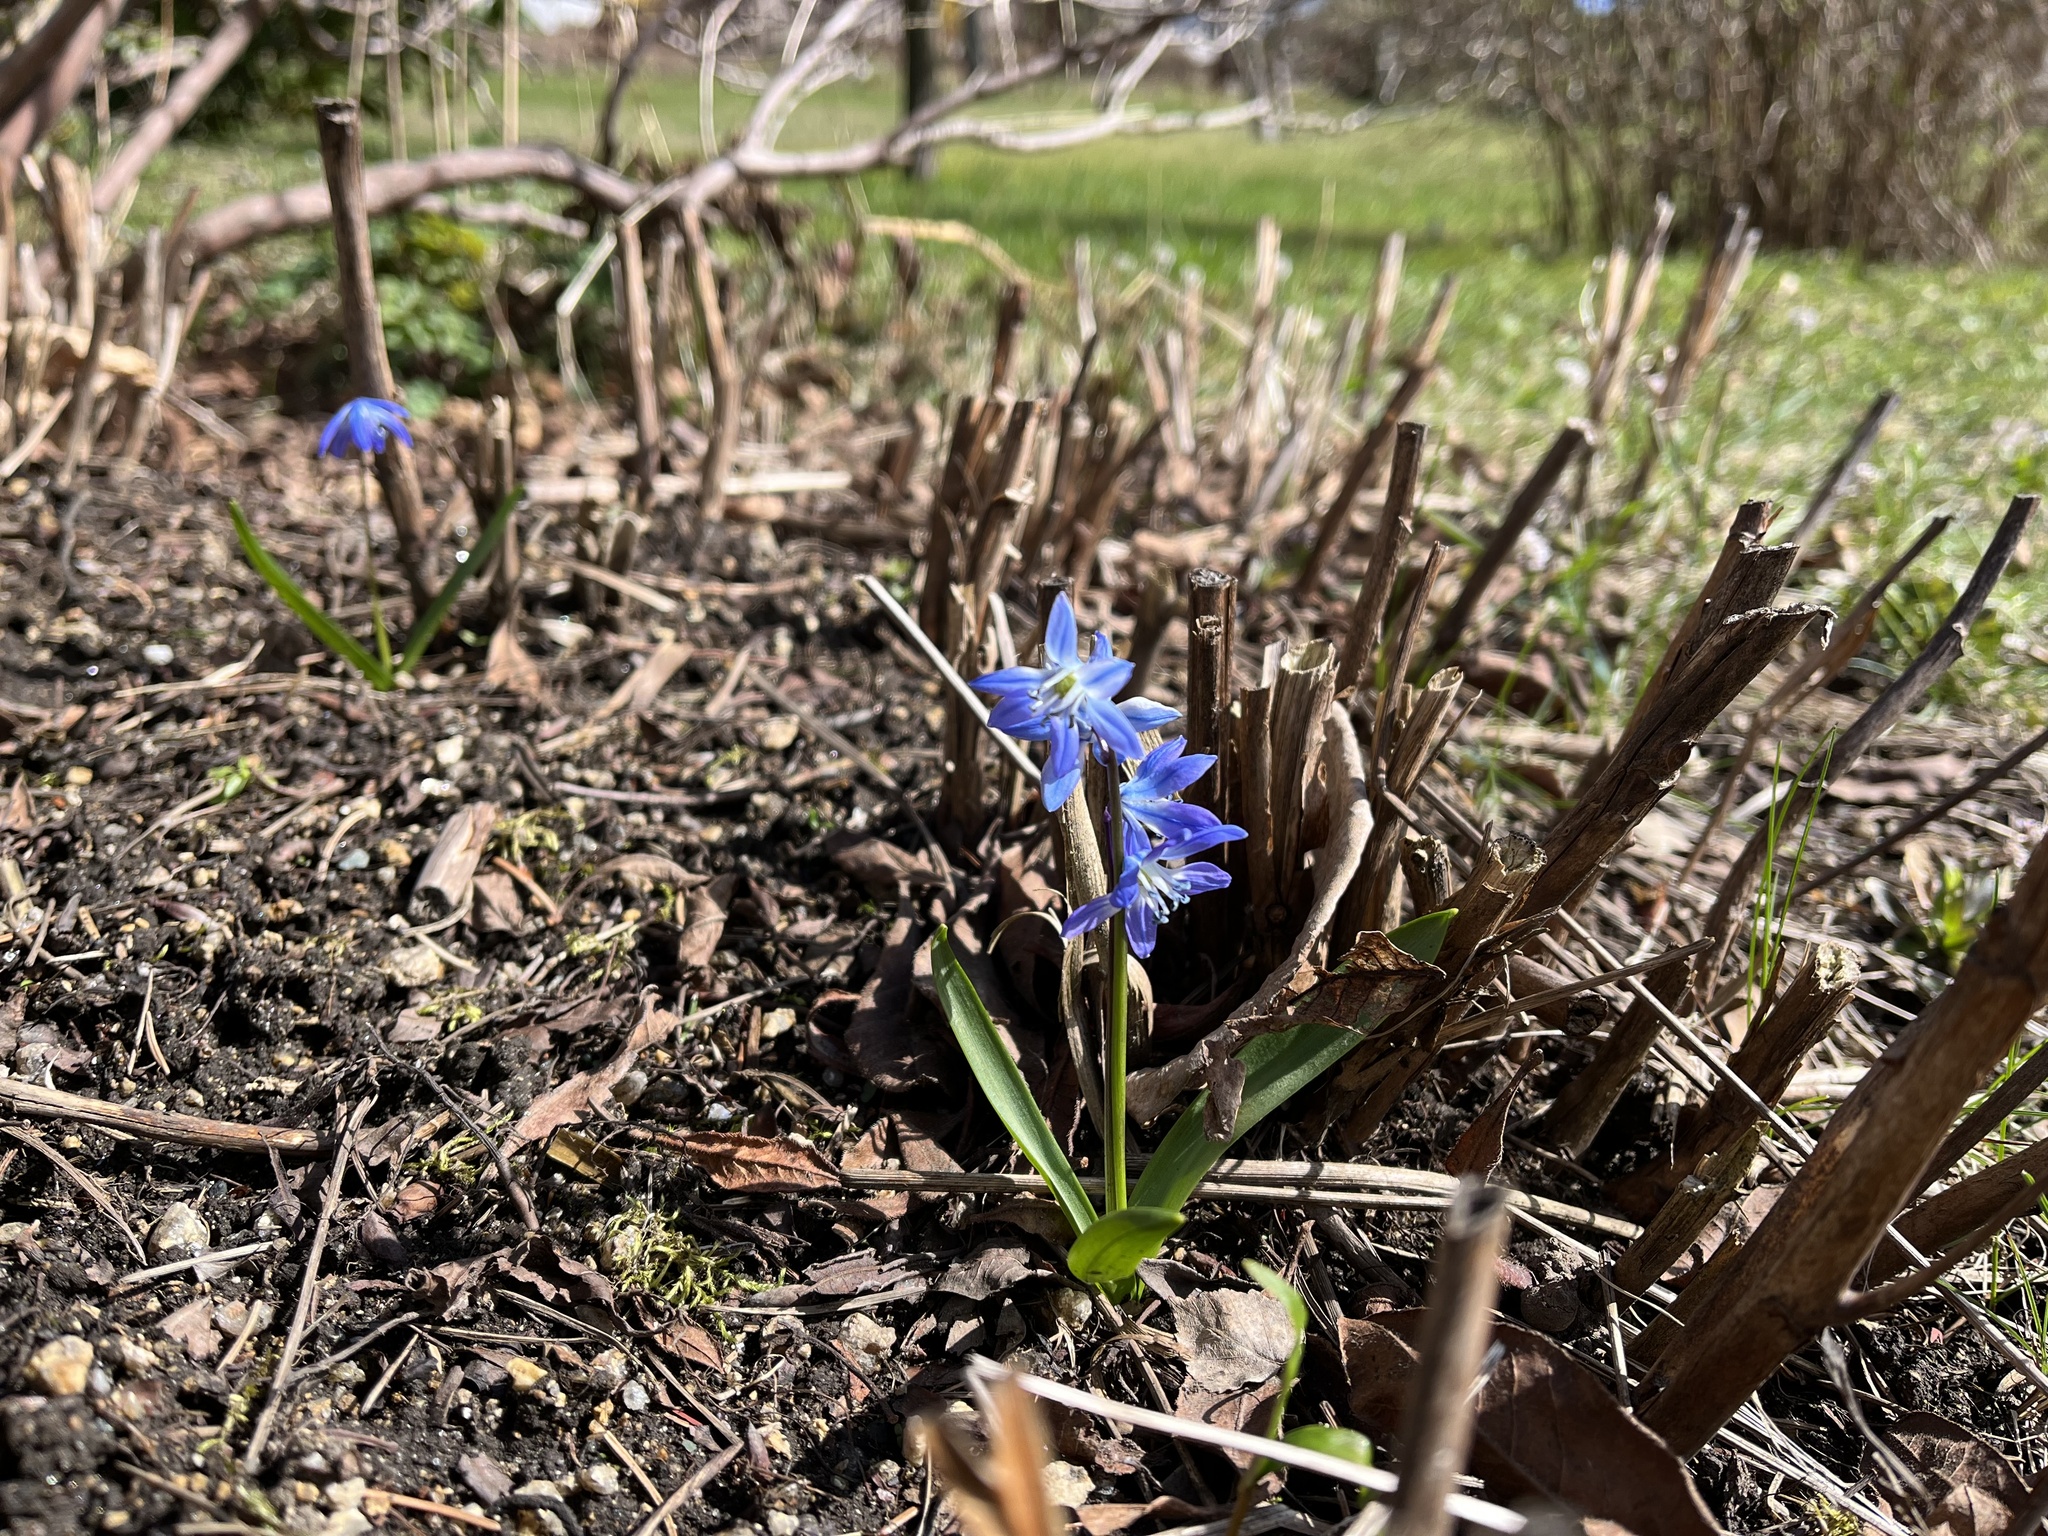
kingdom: Plantae
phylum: Tracheophyta
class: Liliopsida
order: Asparagales
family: Asparagaceae
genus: Scilla
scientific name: Scilla siberica
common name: Siberian squill
